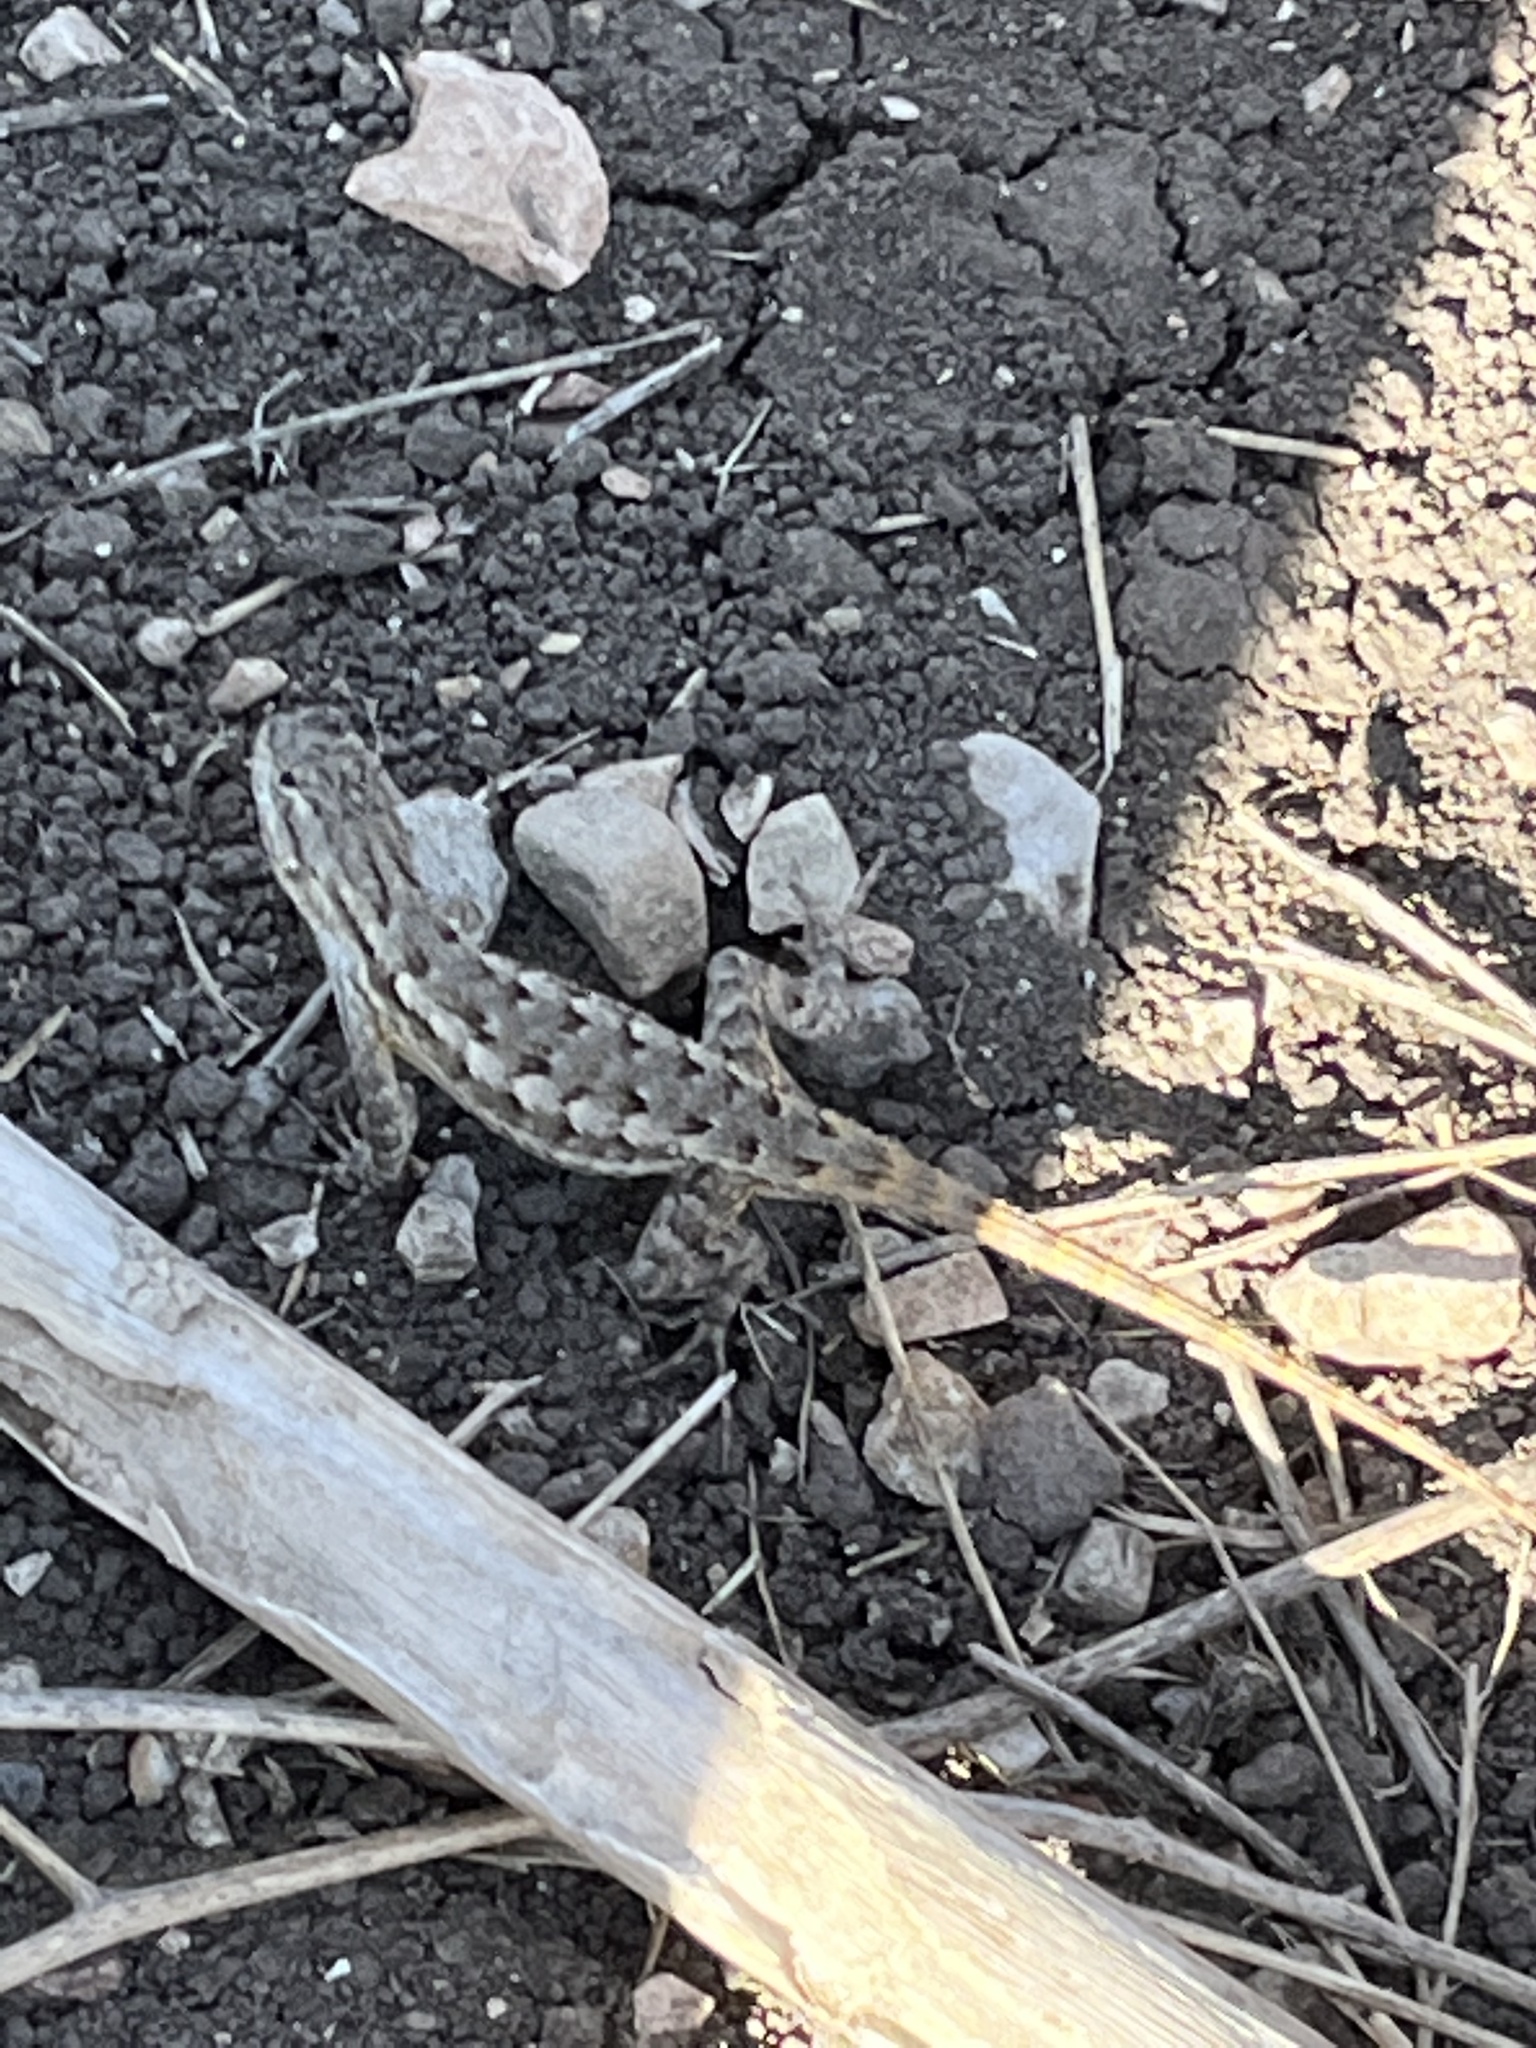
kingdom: Animalia
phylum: Chordata
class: Squamata
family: Phrynosomatidae
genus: Sceloporus
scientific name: Sceloporus occidentalis
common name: Western fence lizard
